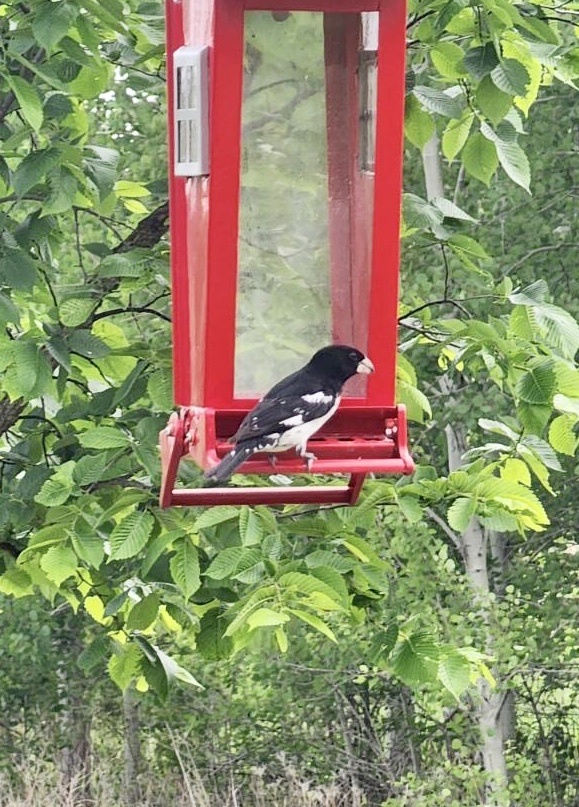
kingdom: Animalia
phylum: Chordata
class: Aves
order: Passeriformes
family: Cardinalidae
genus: Pheucticus
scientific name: Pheucticus ludovicianus
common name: Rose-breasted grosbeak
